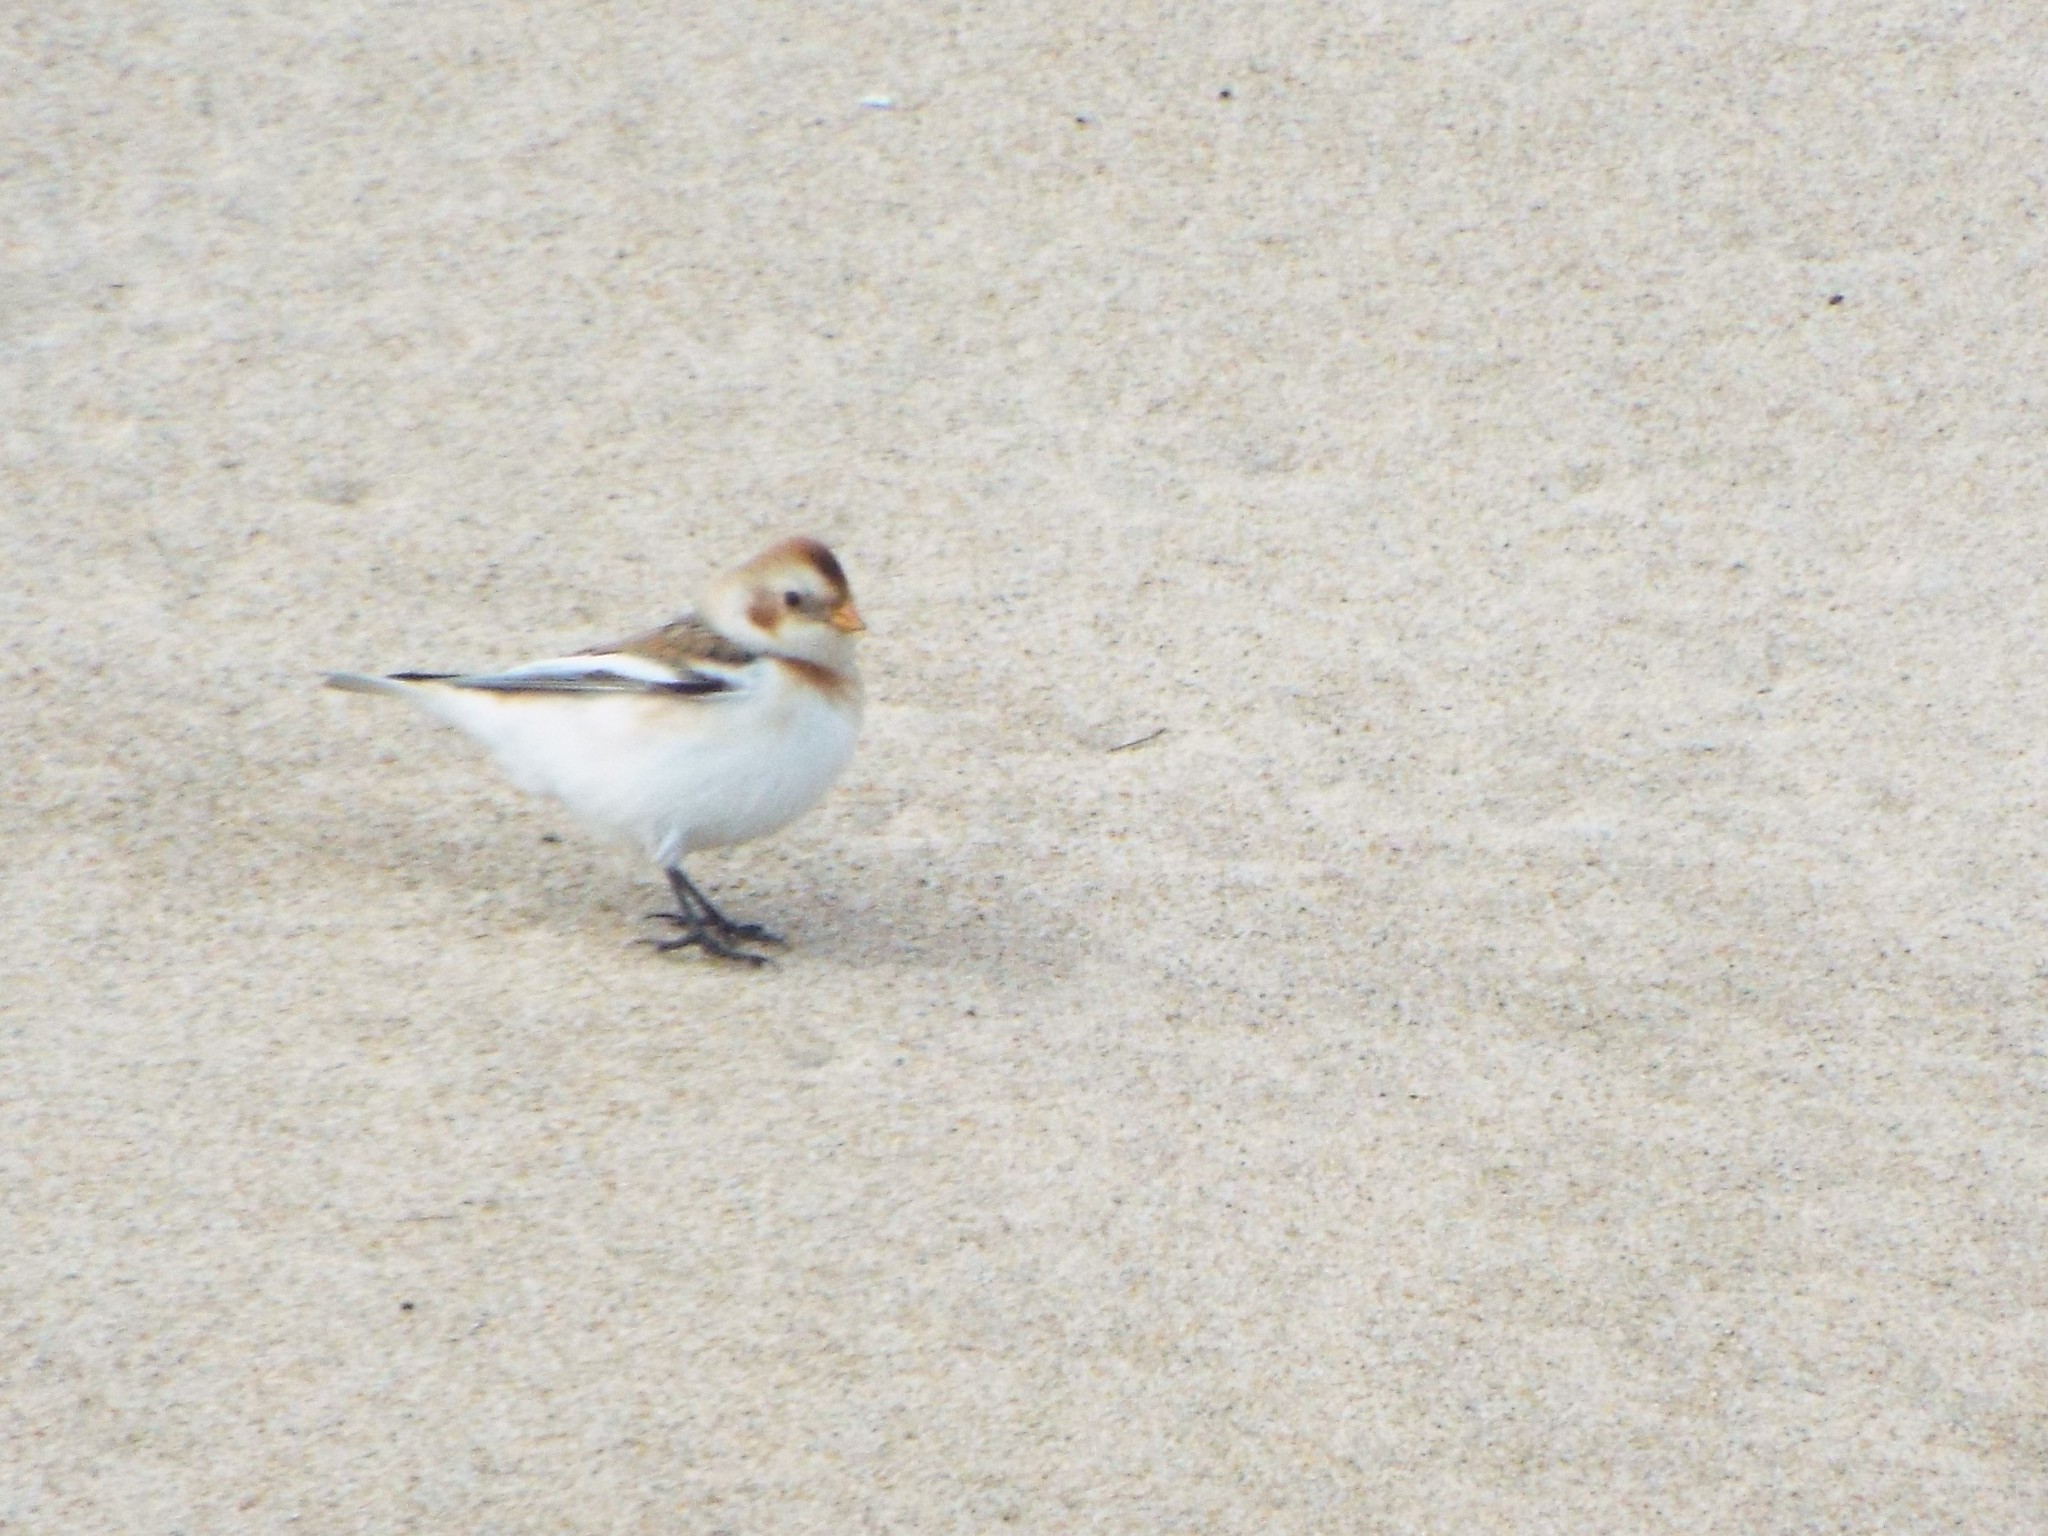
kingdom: Animalia
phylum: Chordata
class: Aves
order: Passeriformes
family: Calcariidae
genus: Plectrophenax
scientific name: Plectrophenax nivalis
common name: Snow bunting
